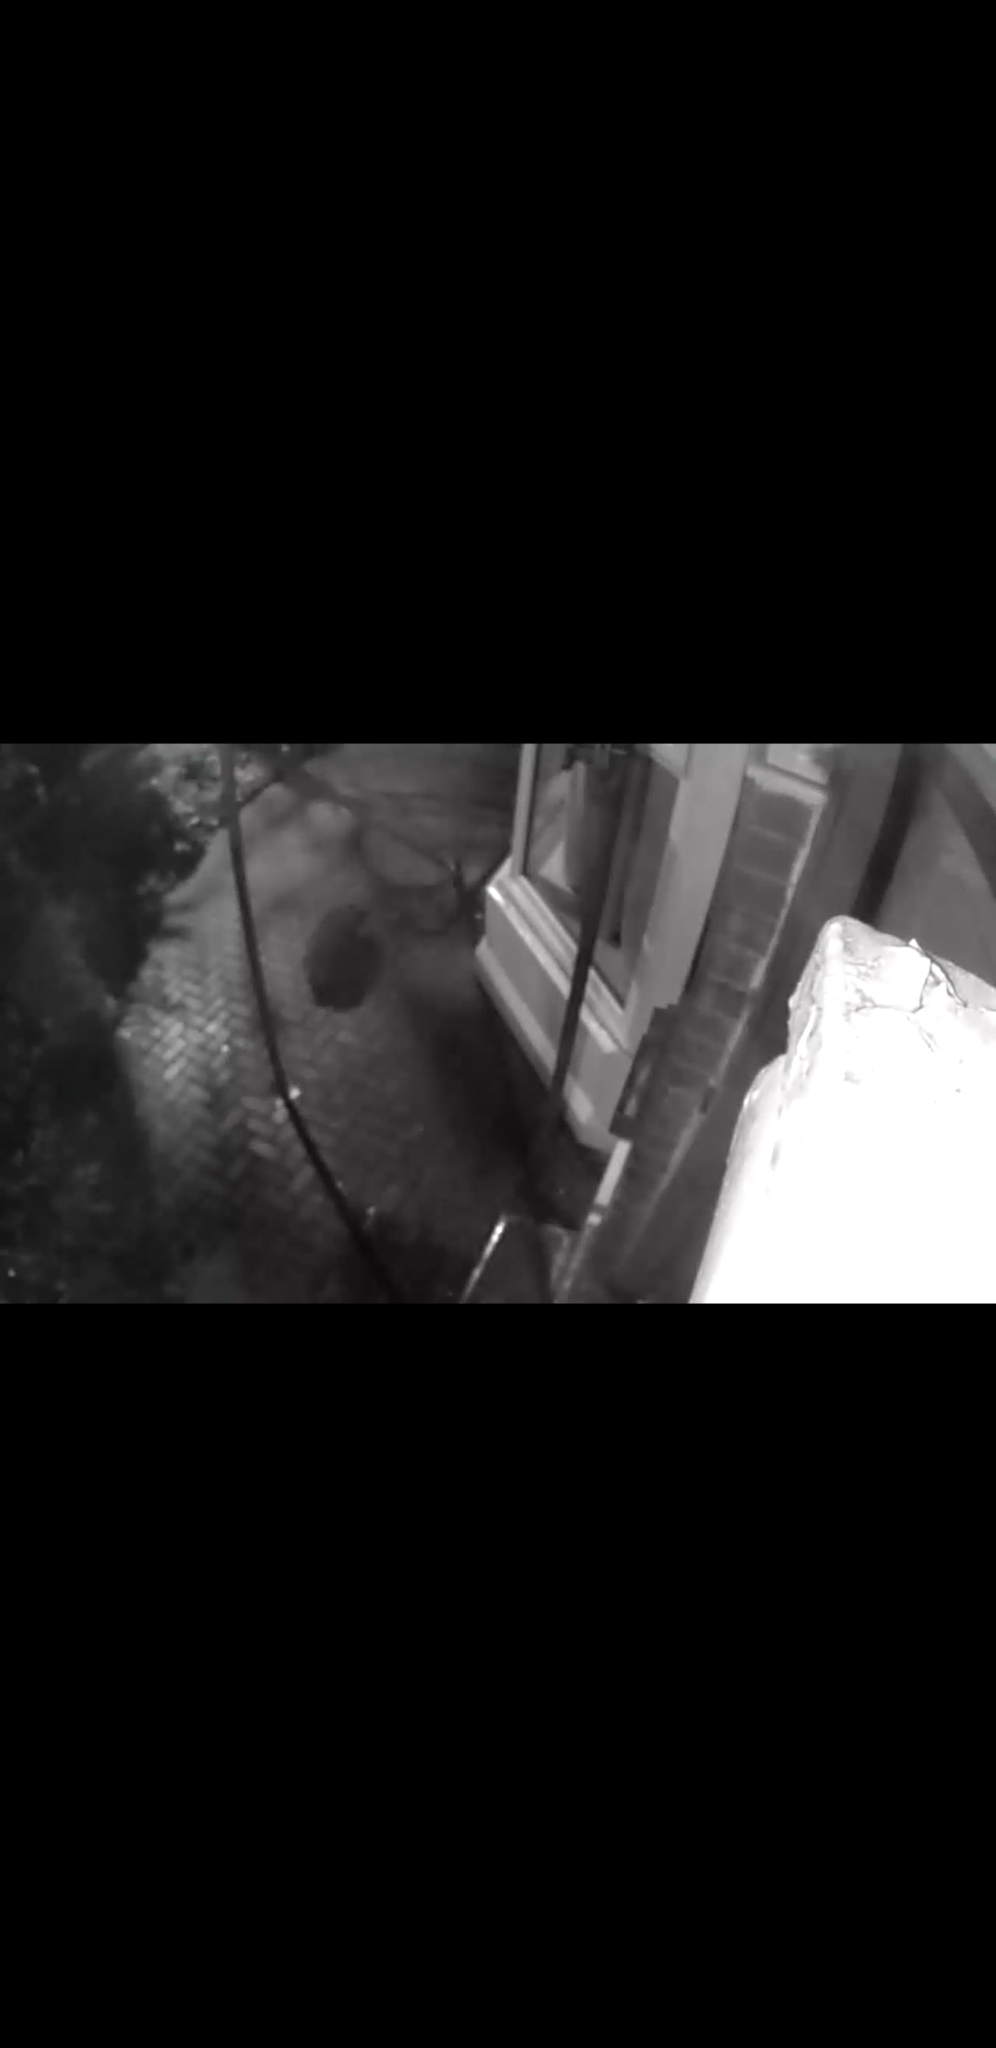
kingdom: Animalia
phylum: Chordata
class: Mammalia
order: Carnivora
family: Mustelidae
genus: Meles
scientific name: Meles meles
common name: Eurasian badger
